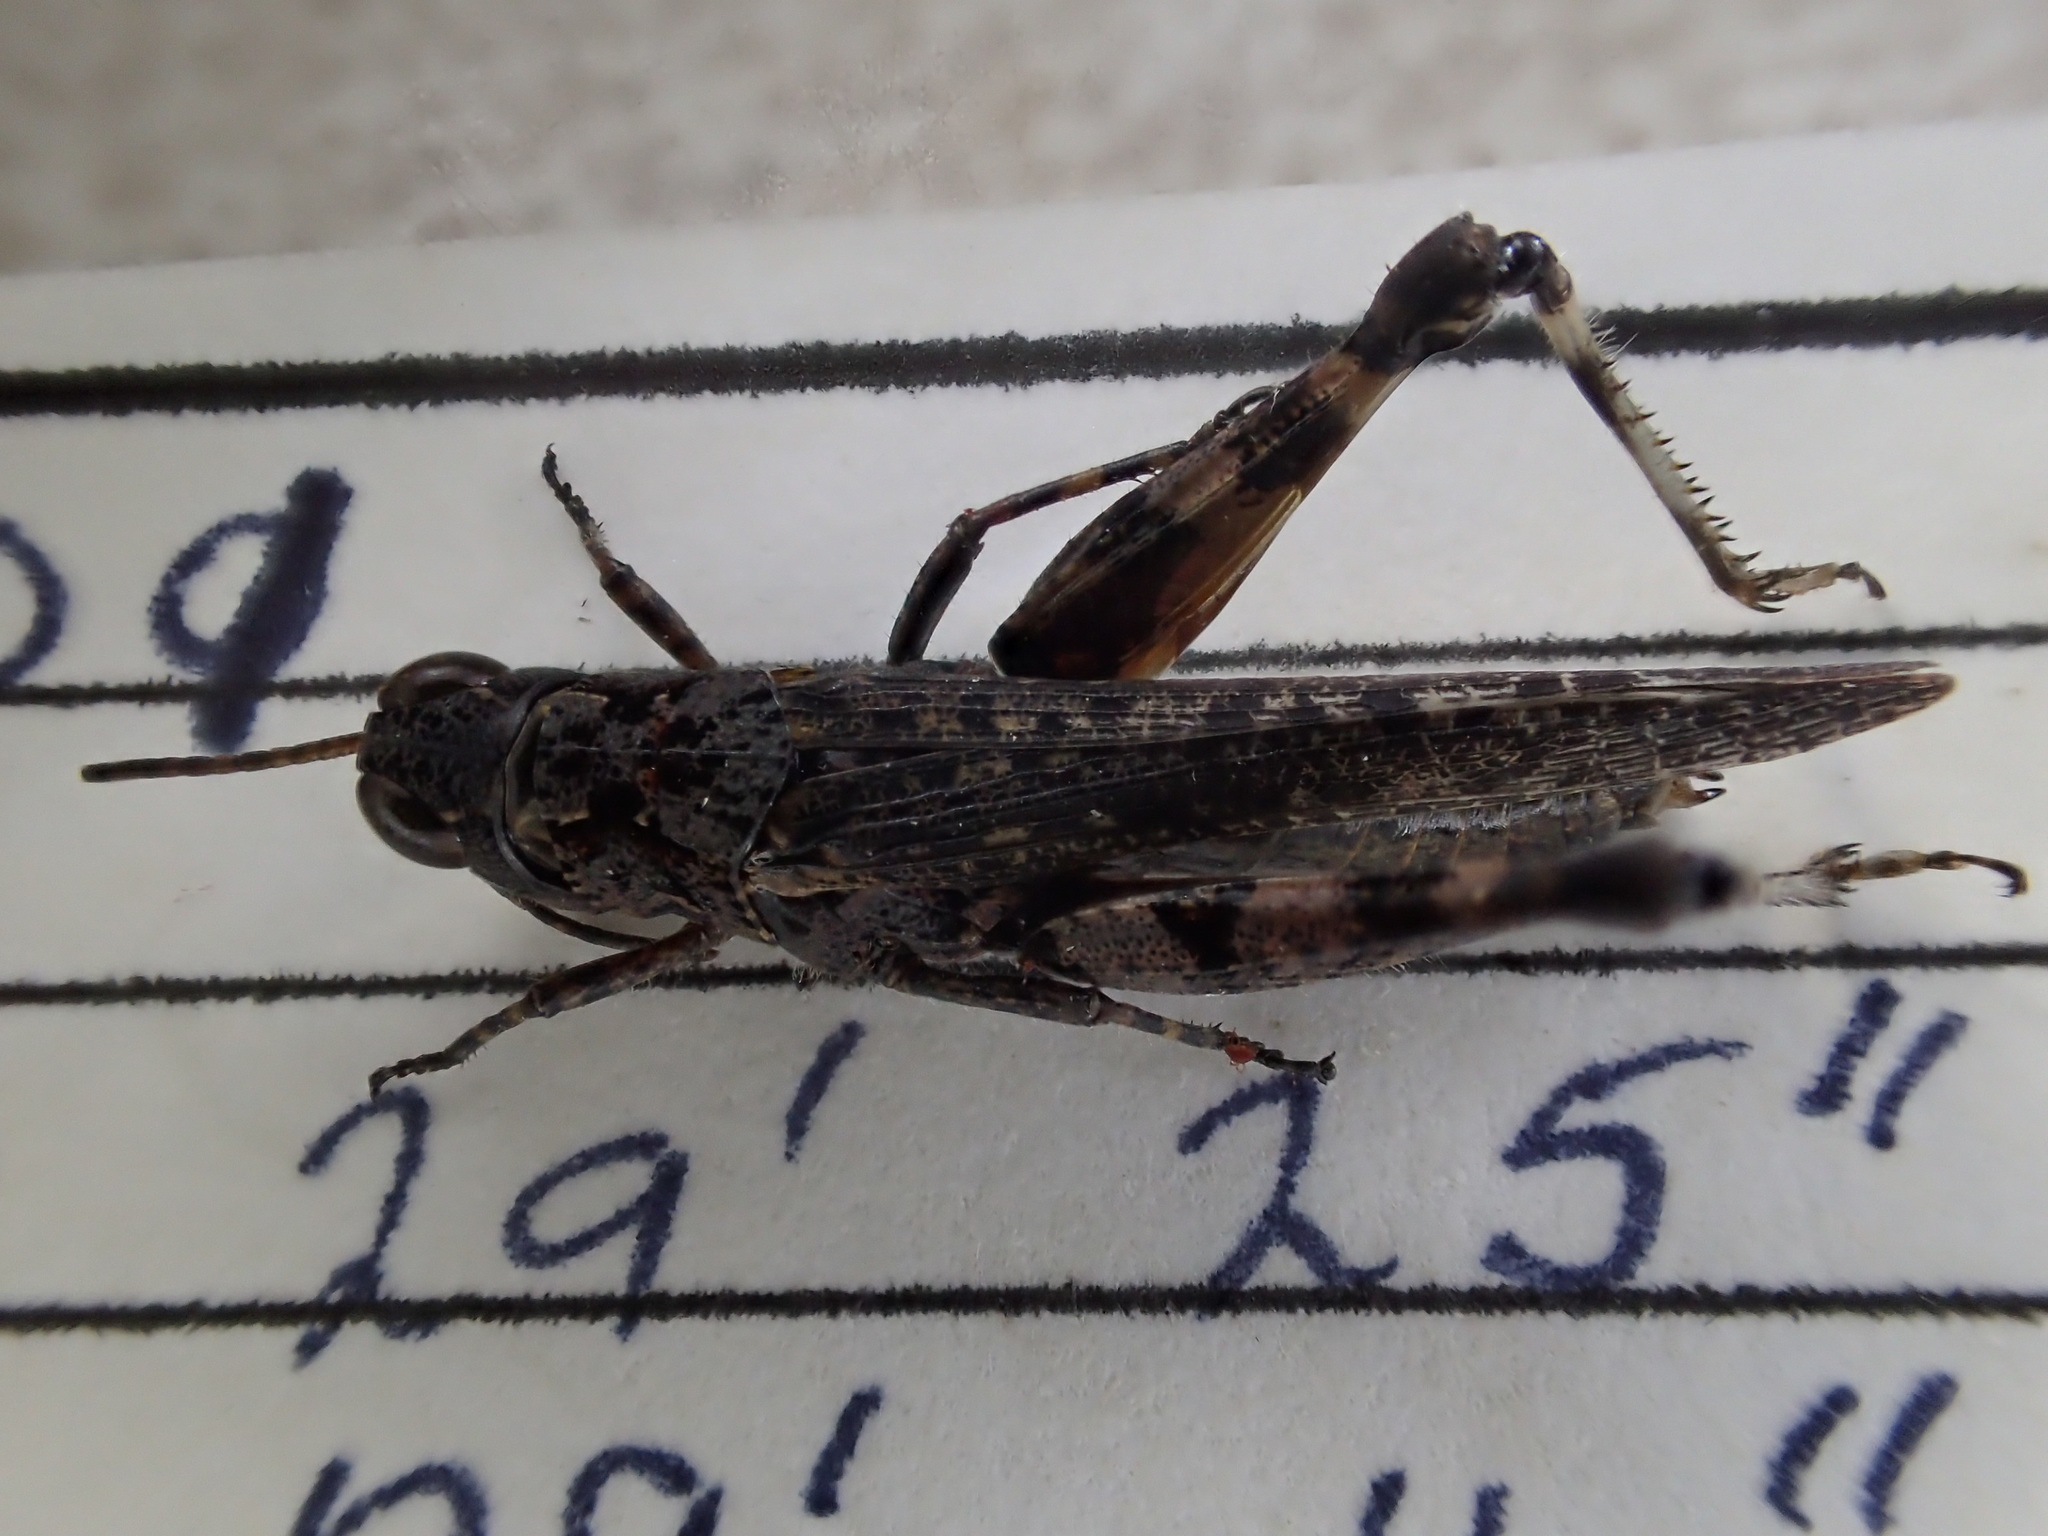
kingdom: Animalia
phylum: Arthropoda
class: Insecta
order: Orthoptera
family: Acrididae
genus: Minyacris
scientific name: Minyacris nana
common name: Tiny grasshopper
